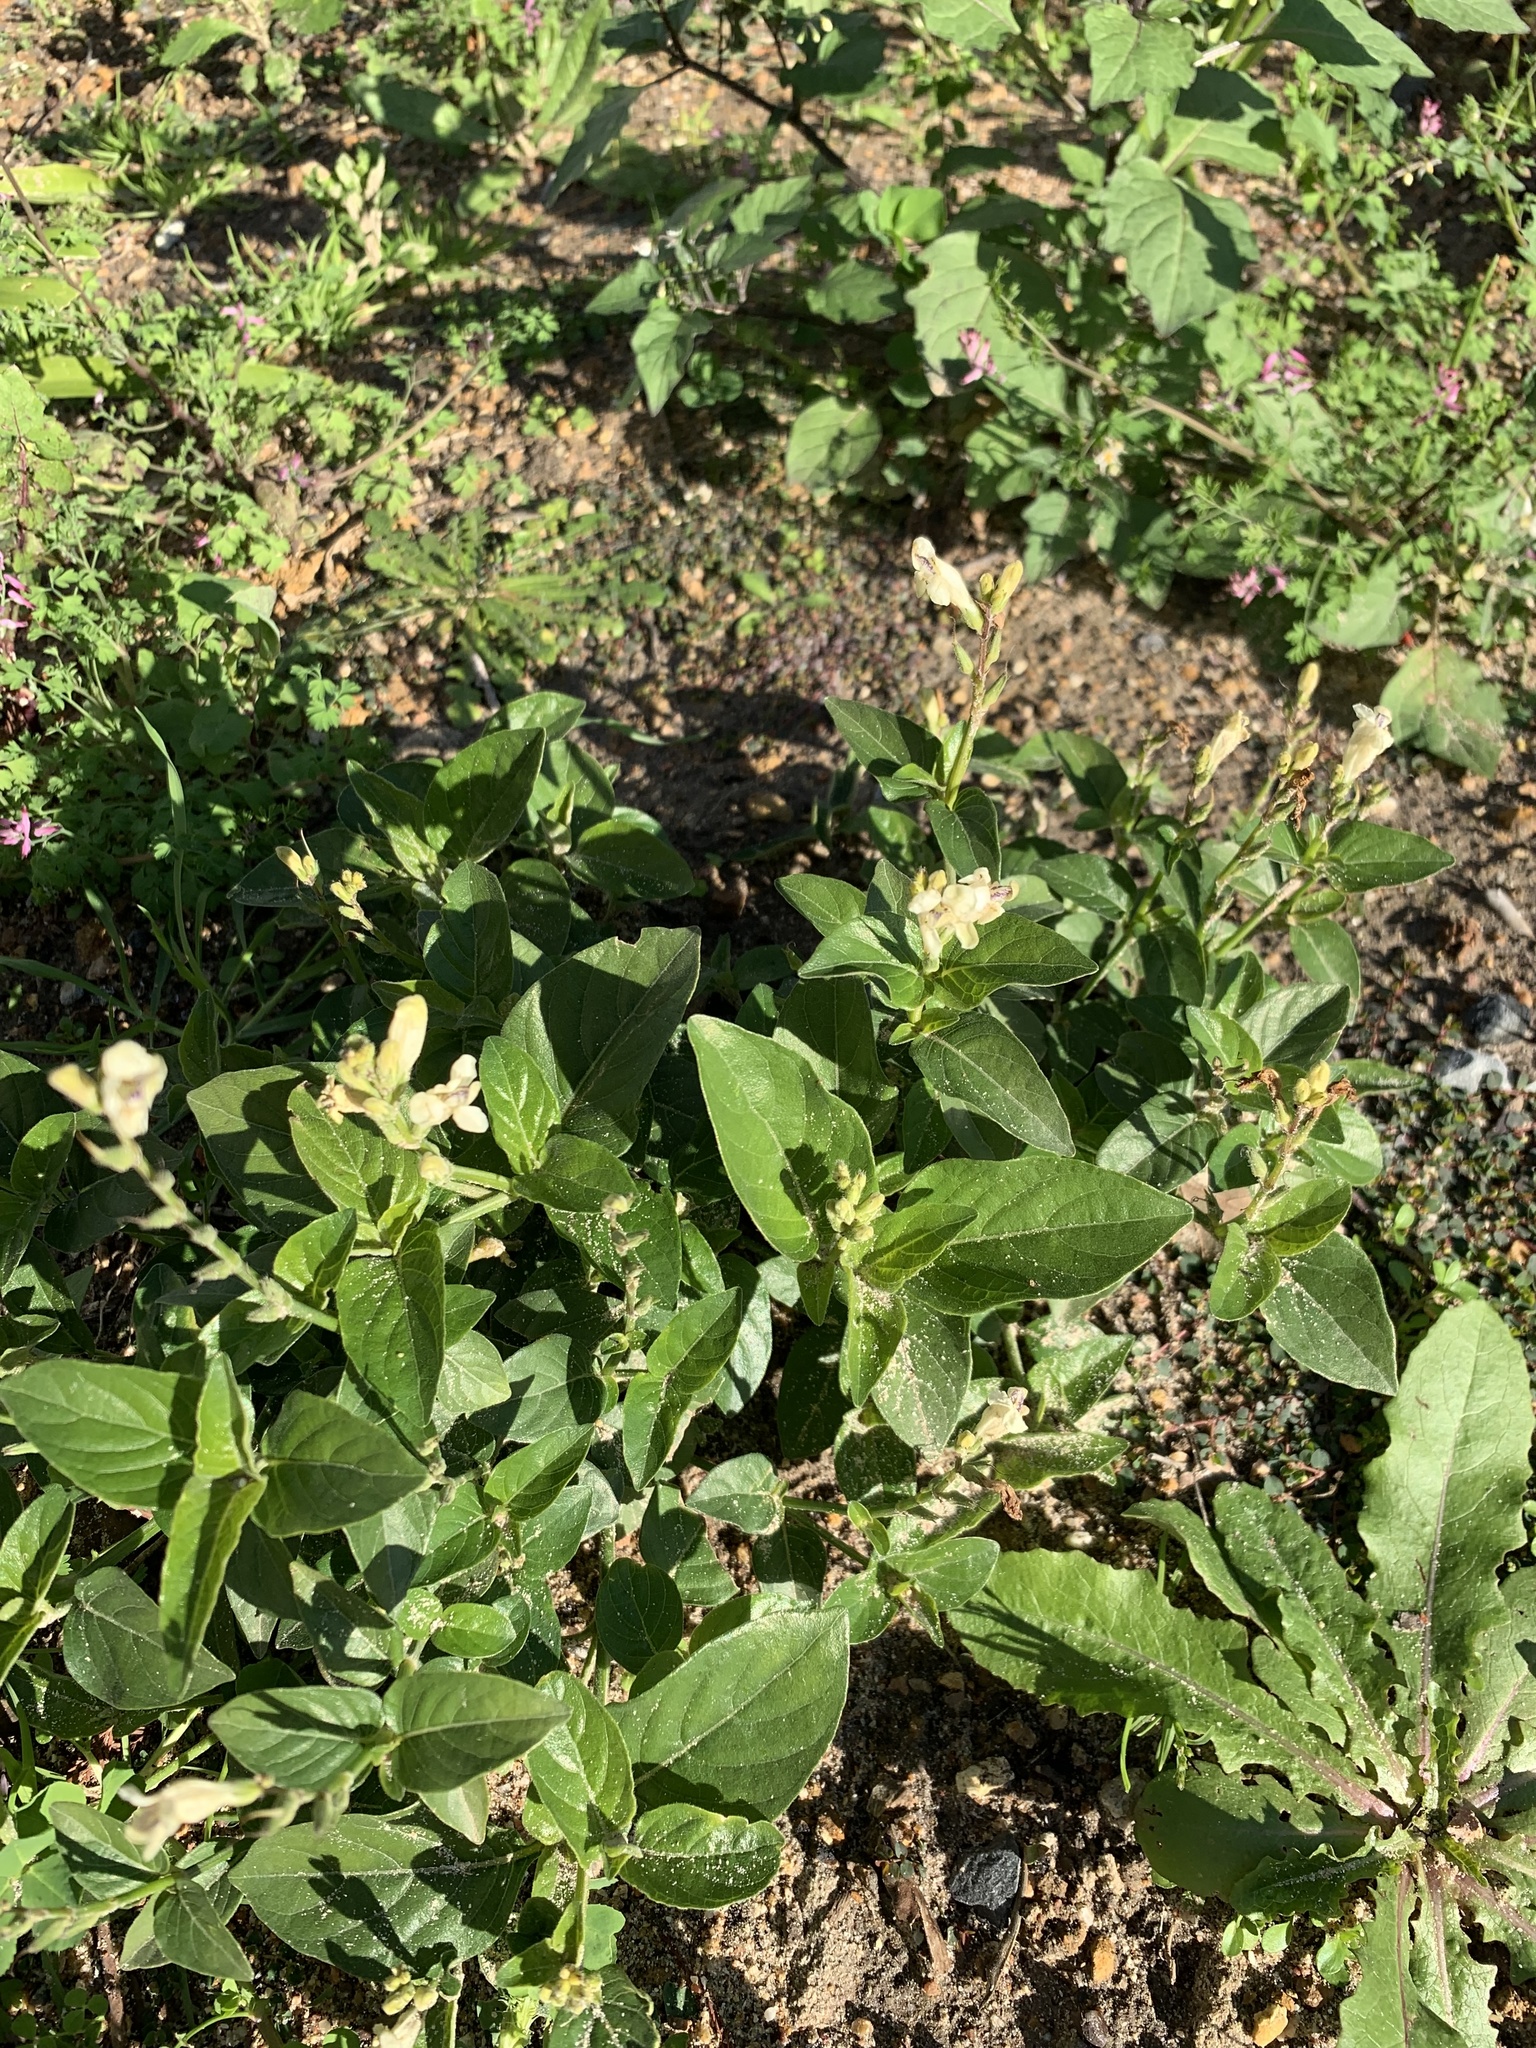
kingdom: Plantae
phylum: Tracheophyta
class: Magnoliopsida
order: Lamiales
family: Acanthaceae
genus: Asystasia
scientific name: Asystasia intrusa
